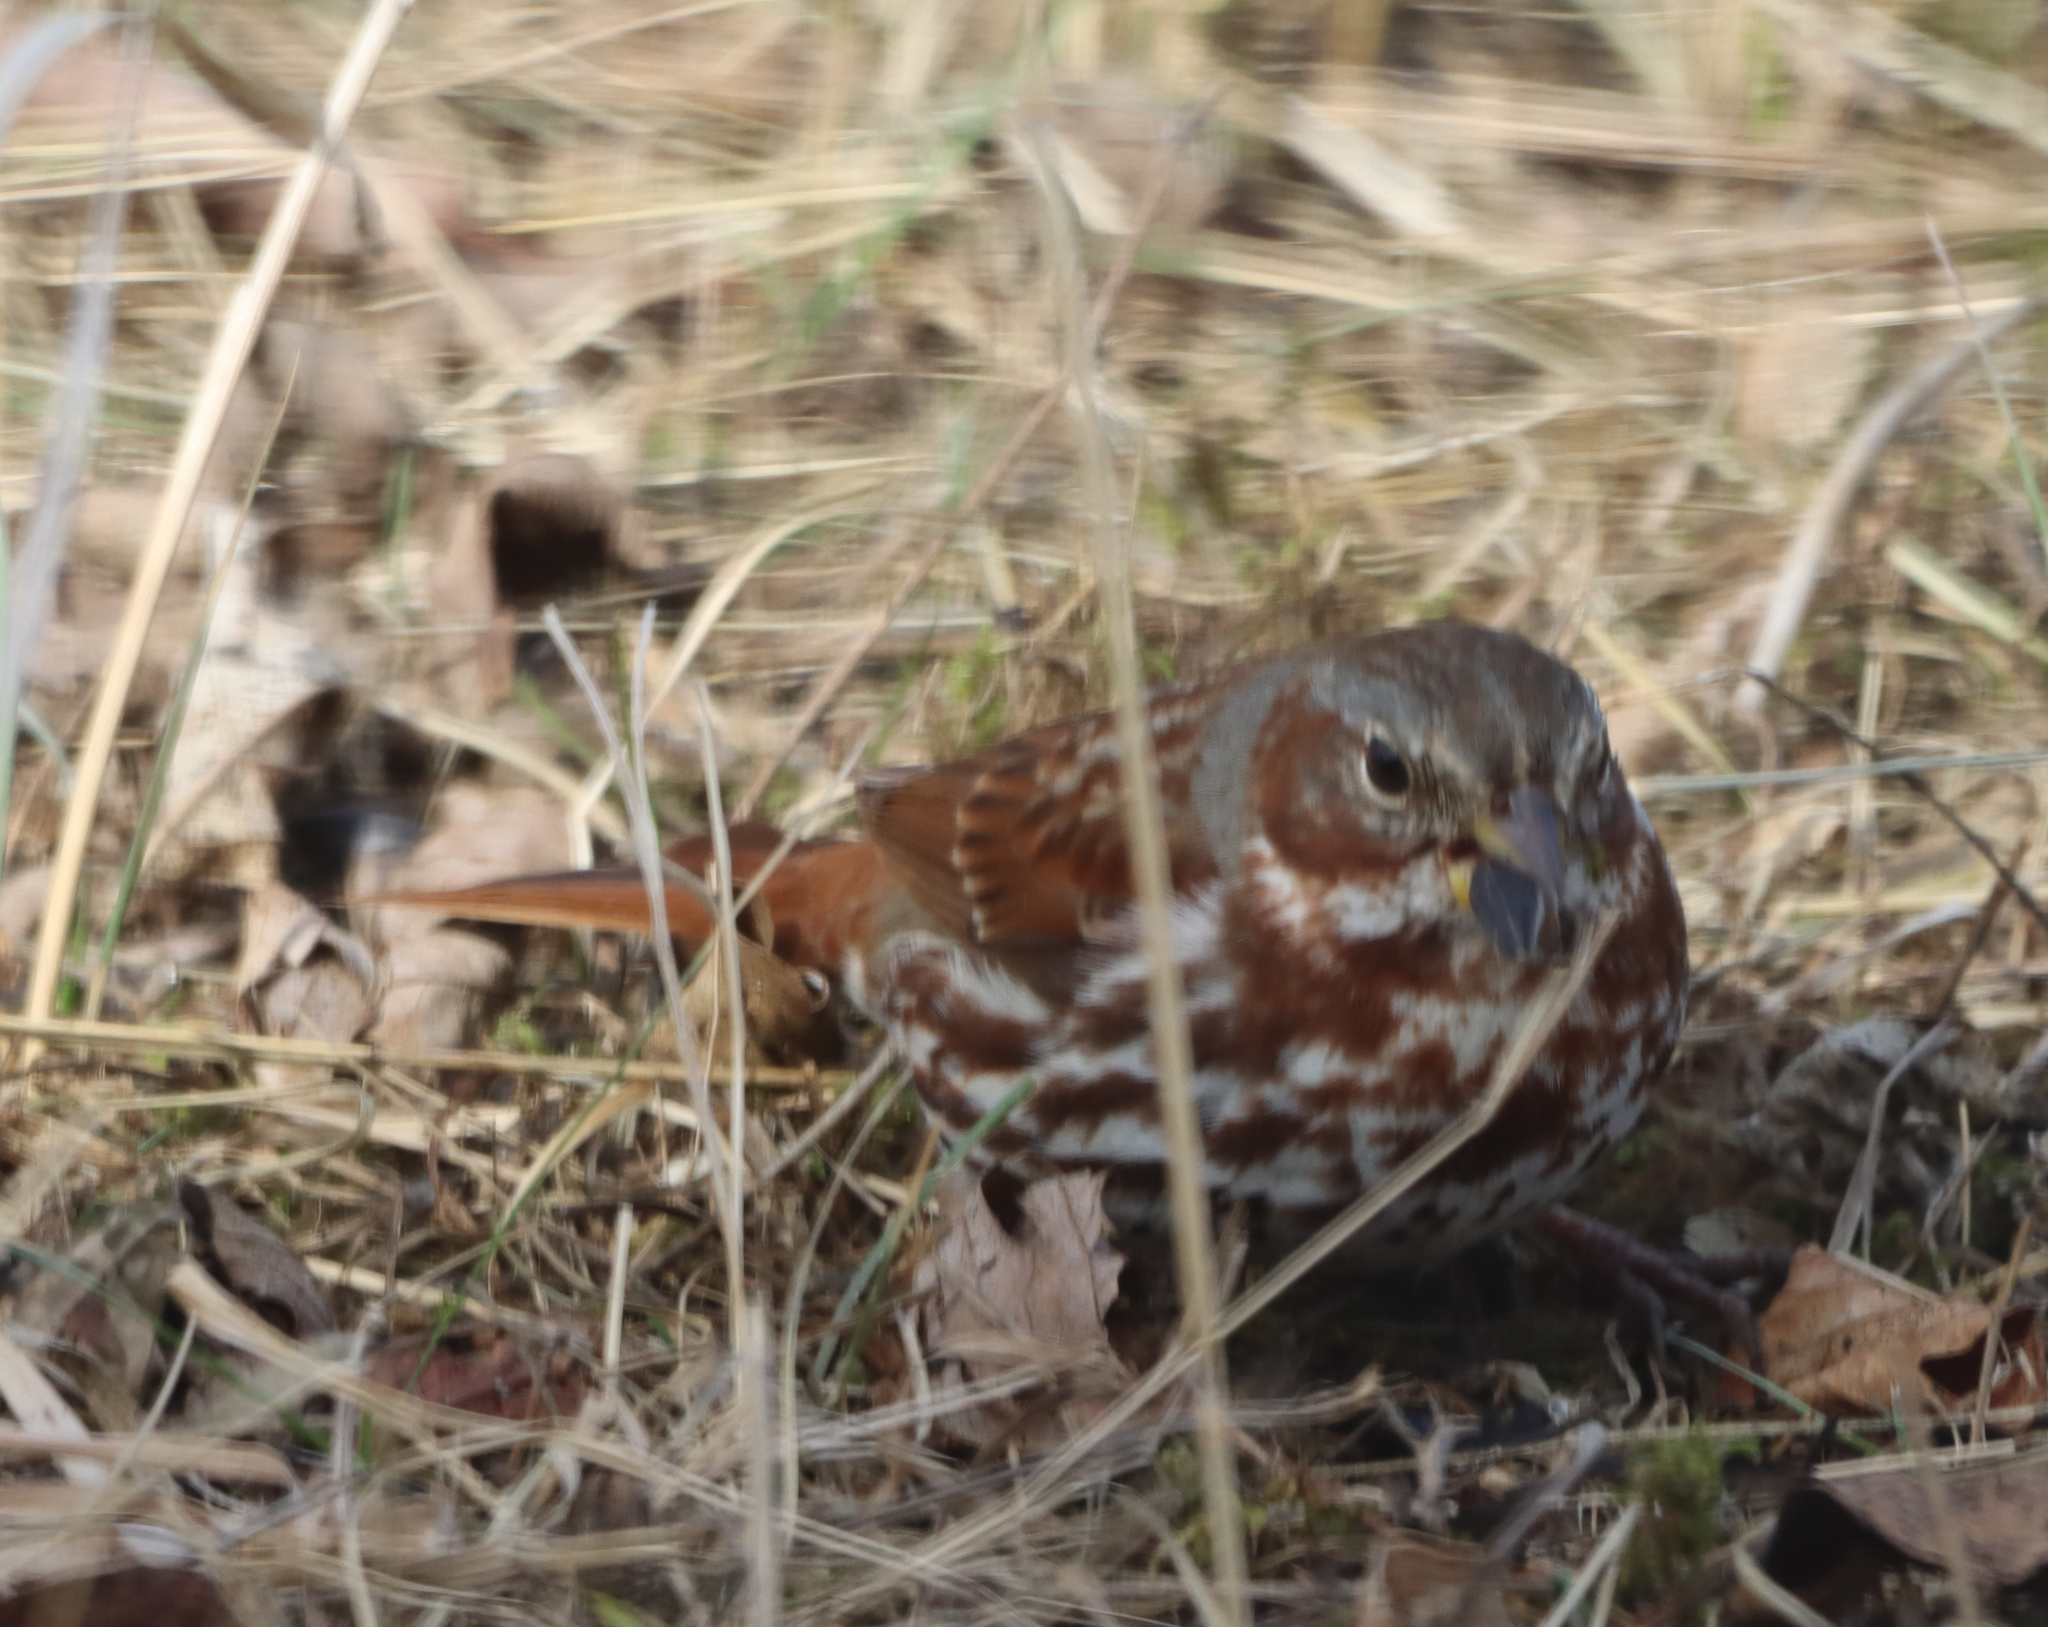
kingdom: Animalia
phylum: Chordata
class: Aves
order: Passeriformes
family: Passerellidae
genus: Passerella
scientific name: Passerella iliaca
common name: Fox sparrow
